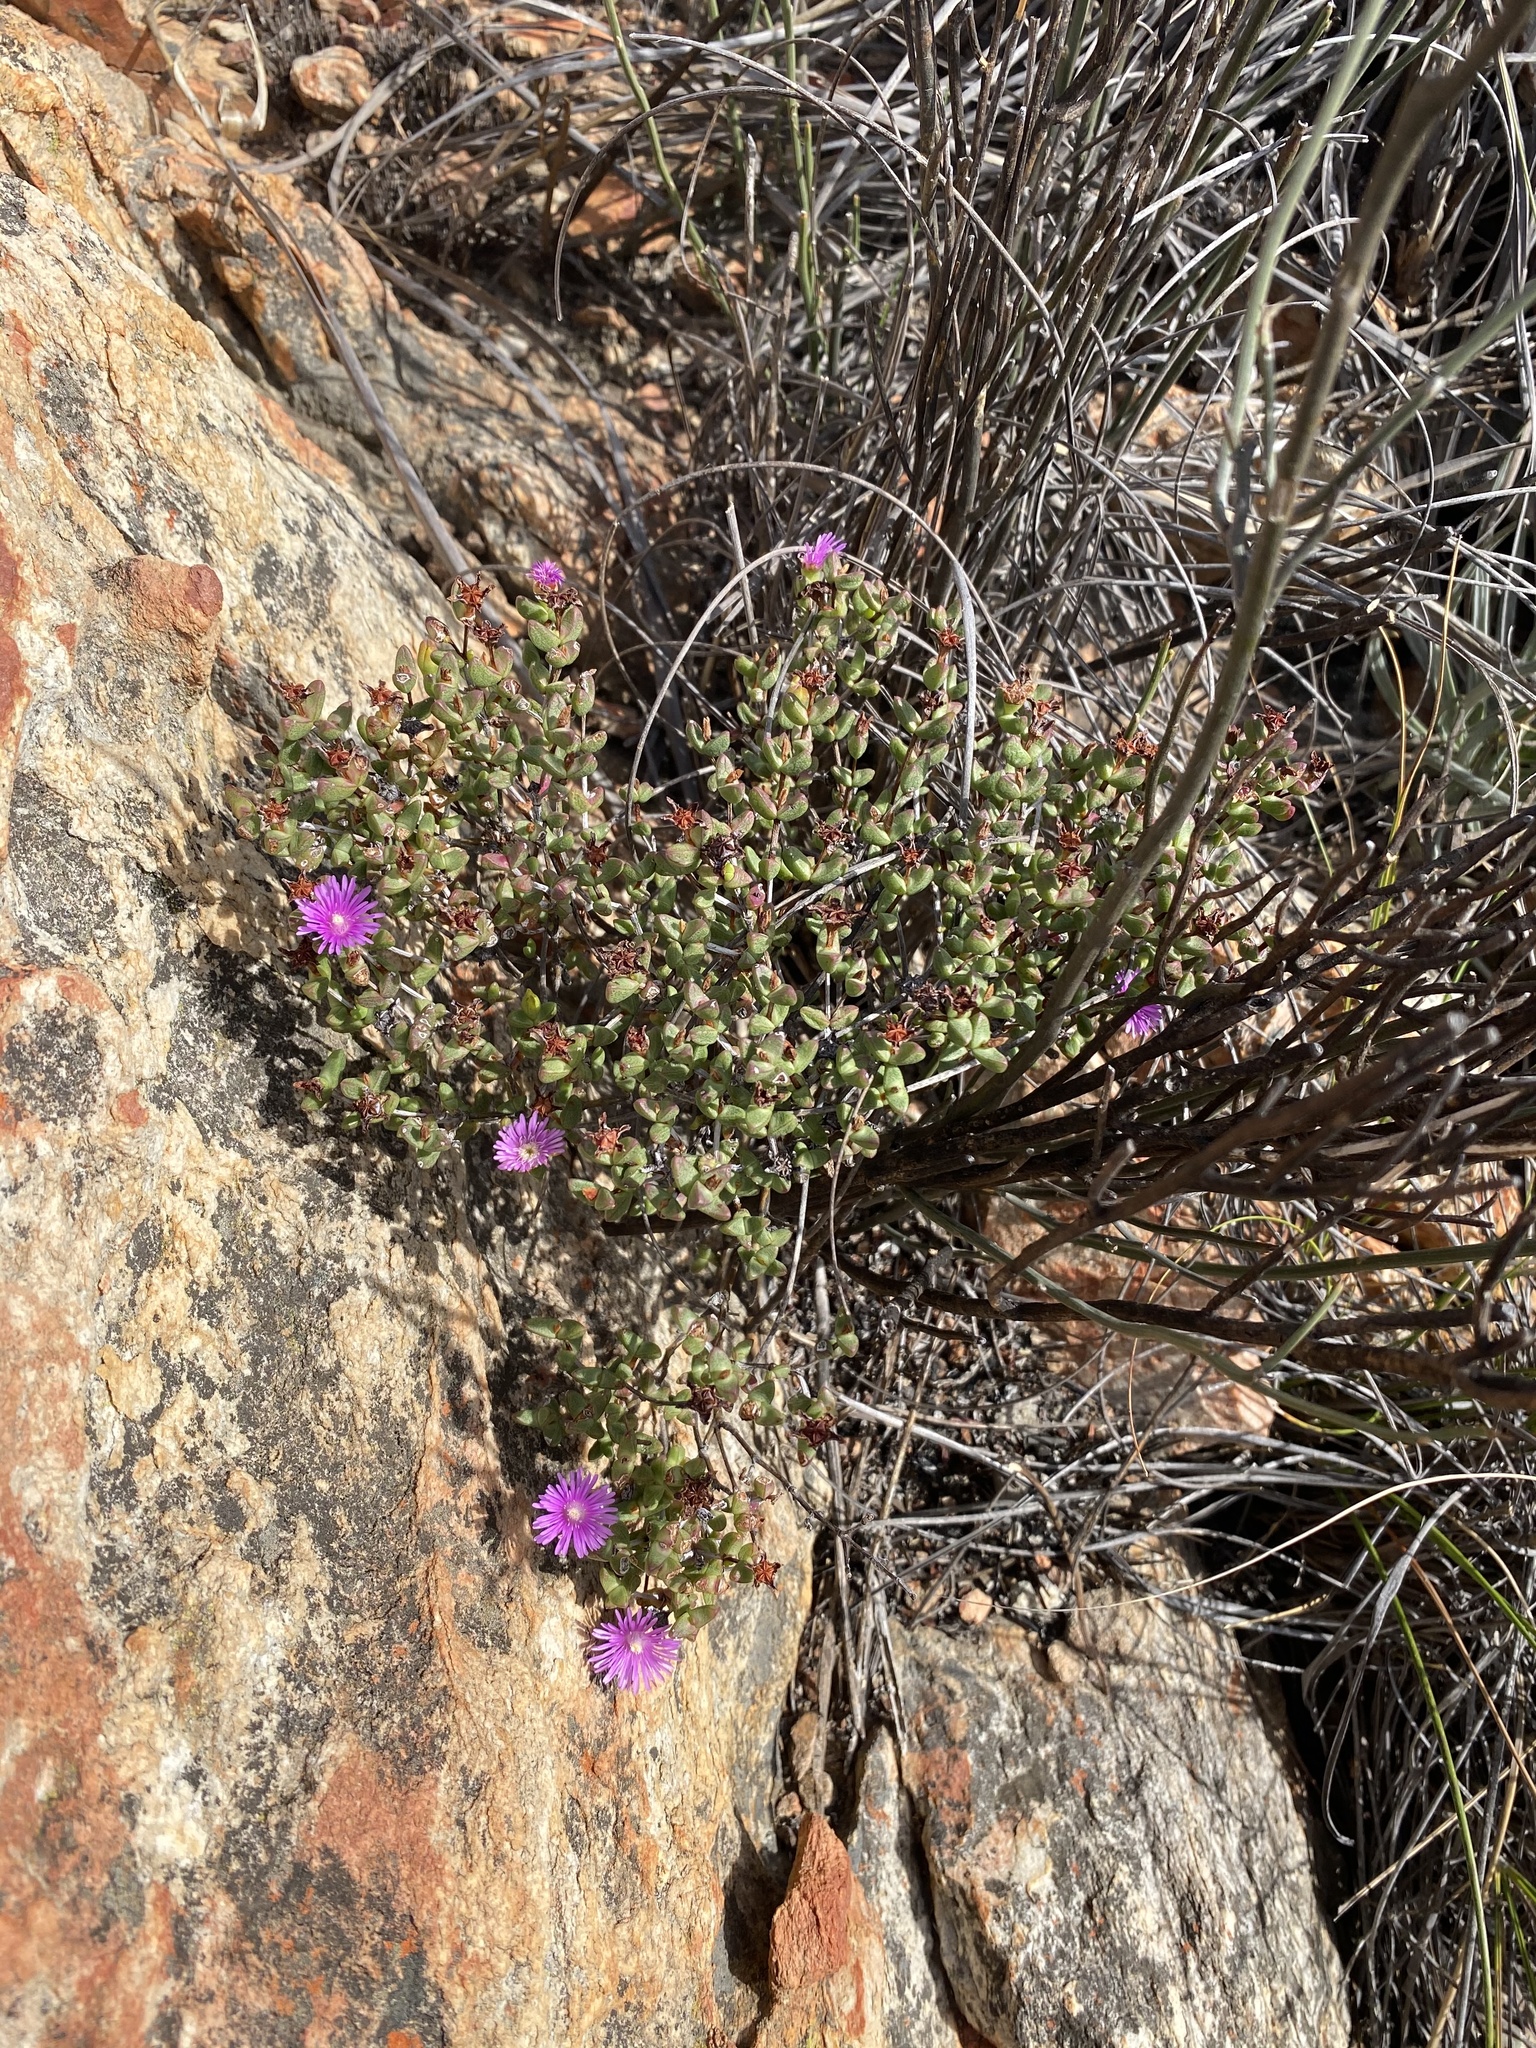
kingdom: Plantae
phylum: Tracheophyta
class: Magnoliopsida
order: Caryophyllales
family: Aizoaceae
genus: Ruschia
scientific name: Ruschia virgata
